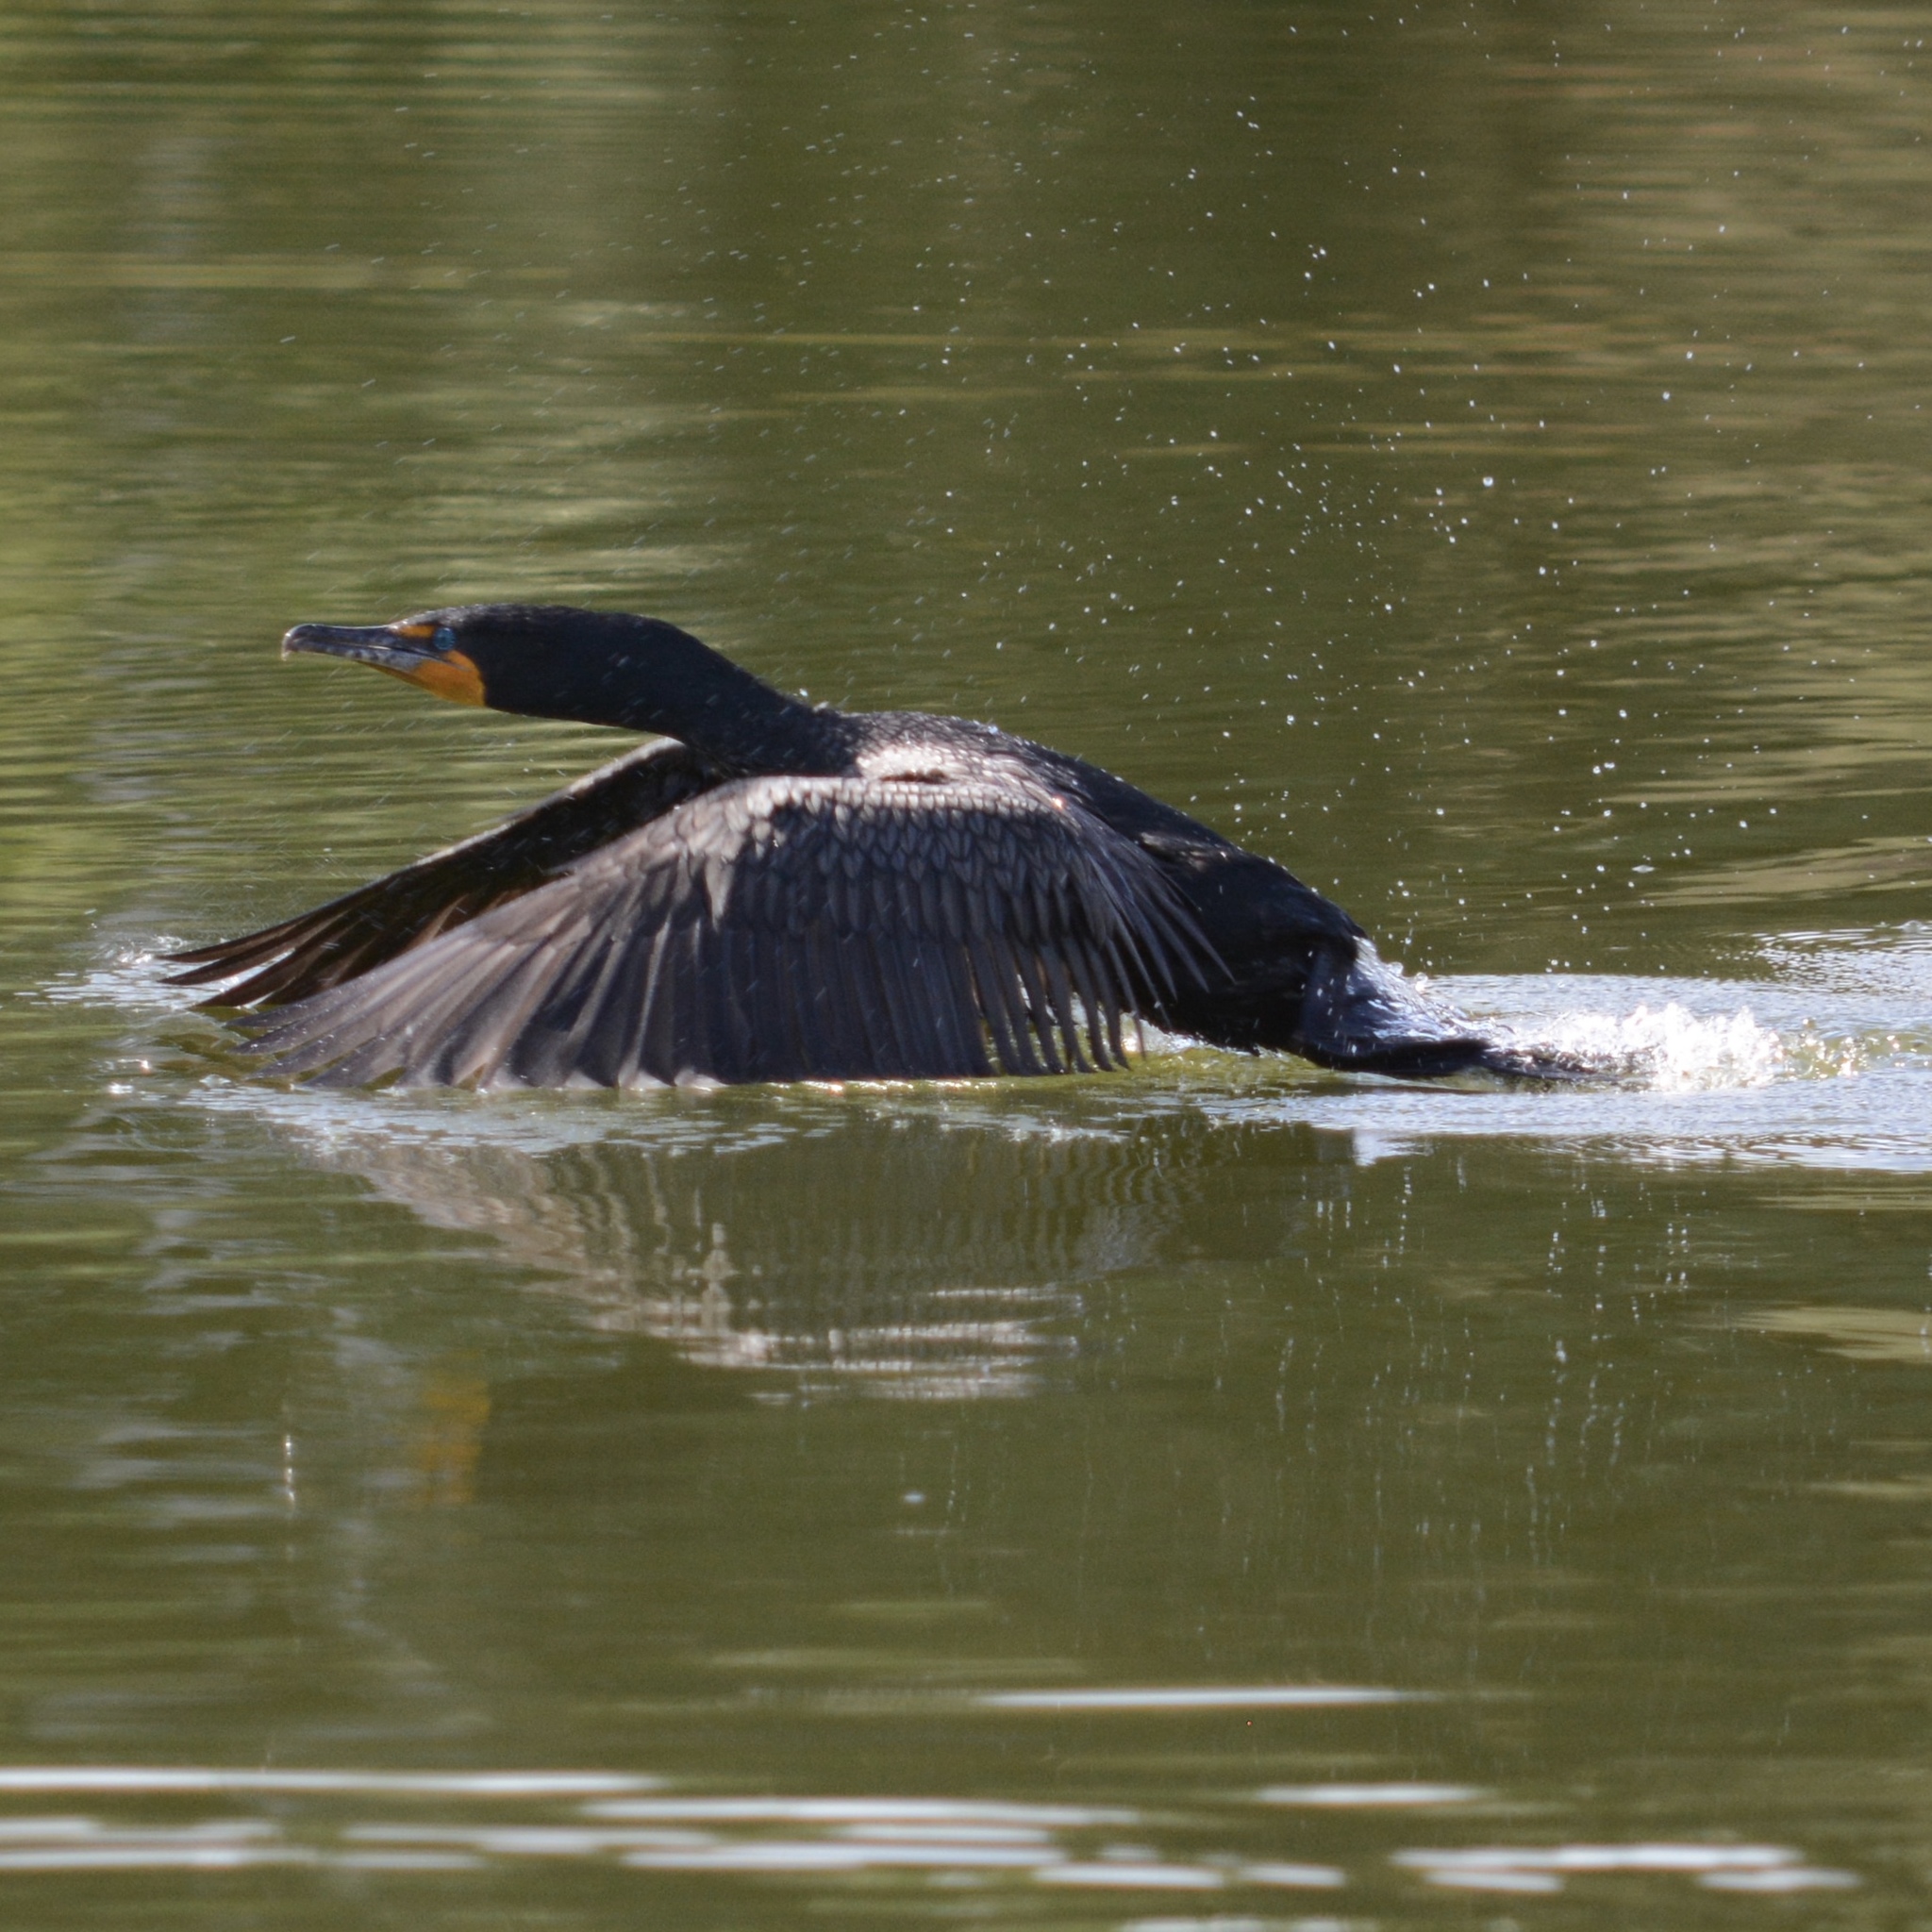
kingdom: Animalia
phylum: Chordata
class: Aves
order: Suliformes
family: Phalacrocoracidae
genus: Phalacrocorax
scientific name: Phalacrocorax auritus
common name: Double-crested cormorant
